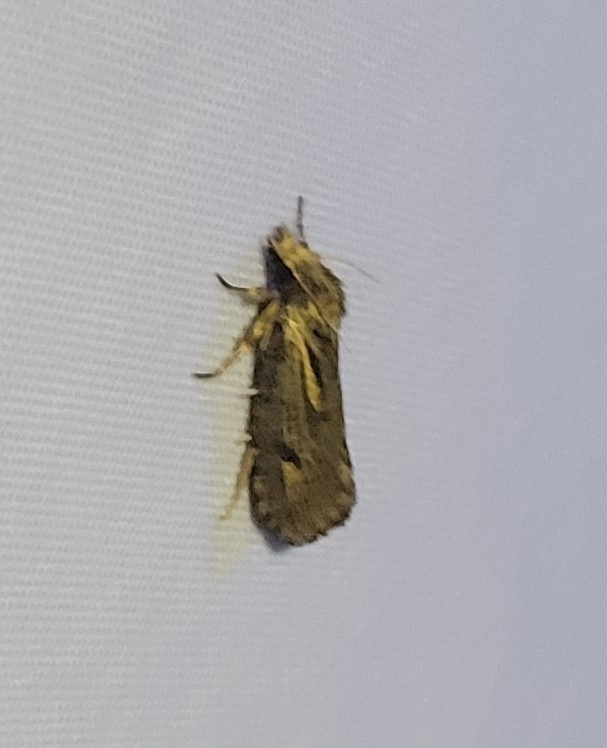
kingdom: Animalia
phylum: Arthropoda
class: Insecta
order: Lepidoptera
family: Tineidae
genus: Acrolophus
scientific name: Acrolophus popeanella
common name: Clemens' grass tubeworm moth
